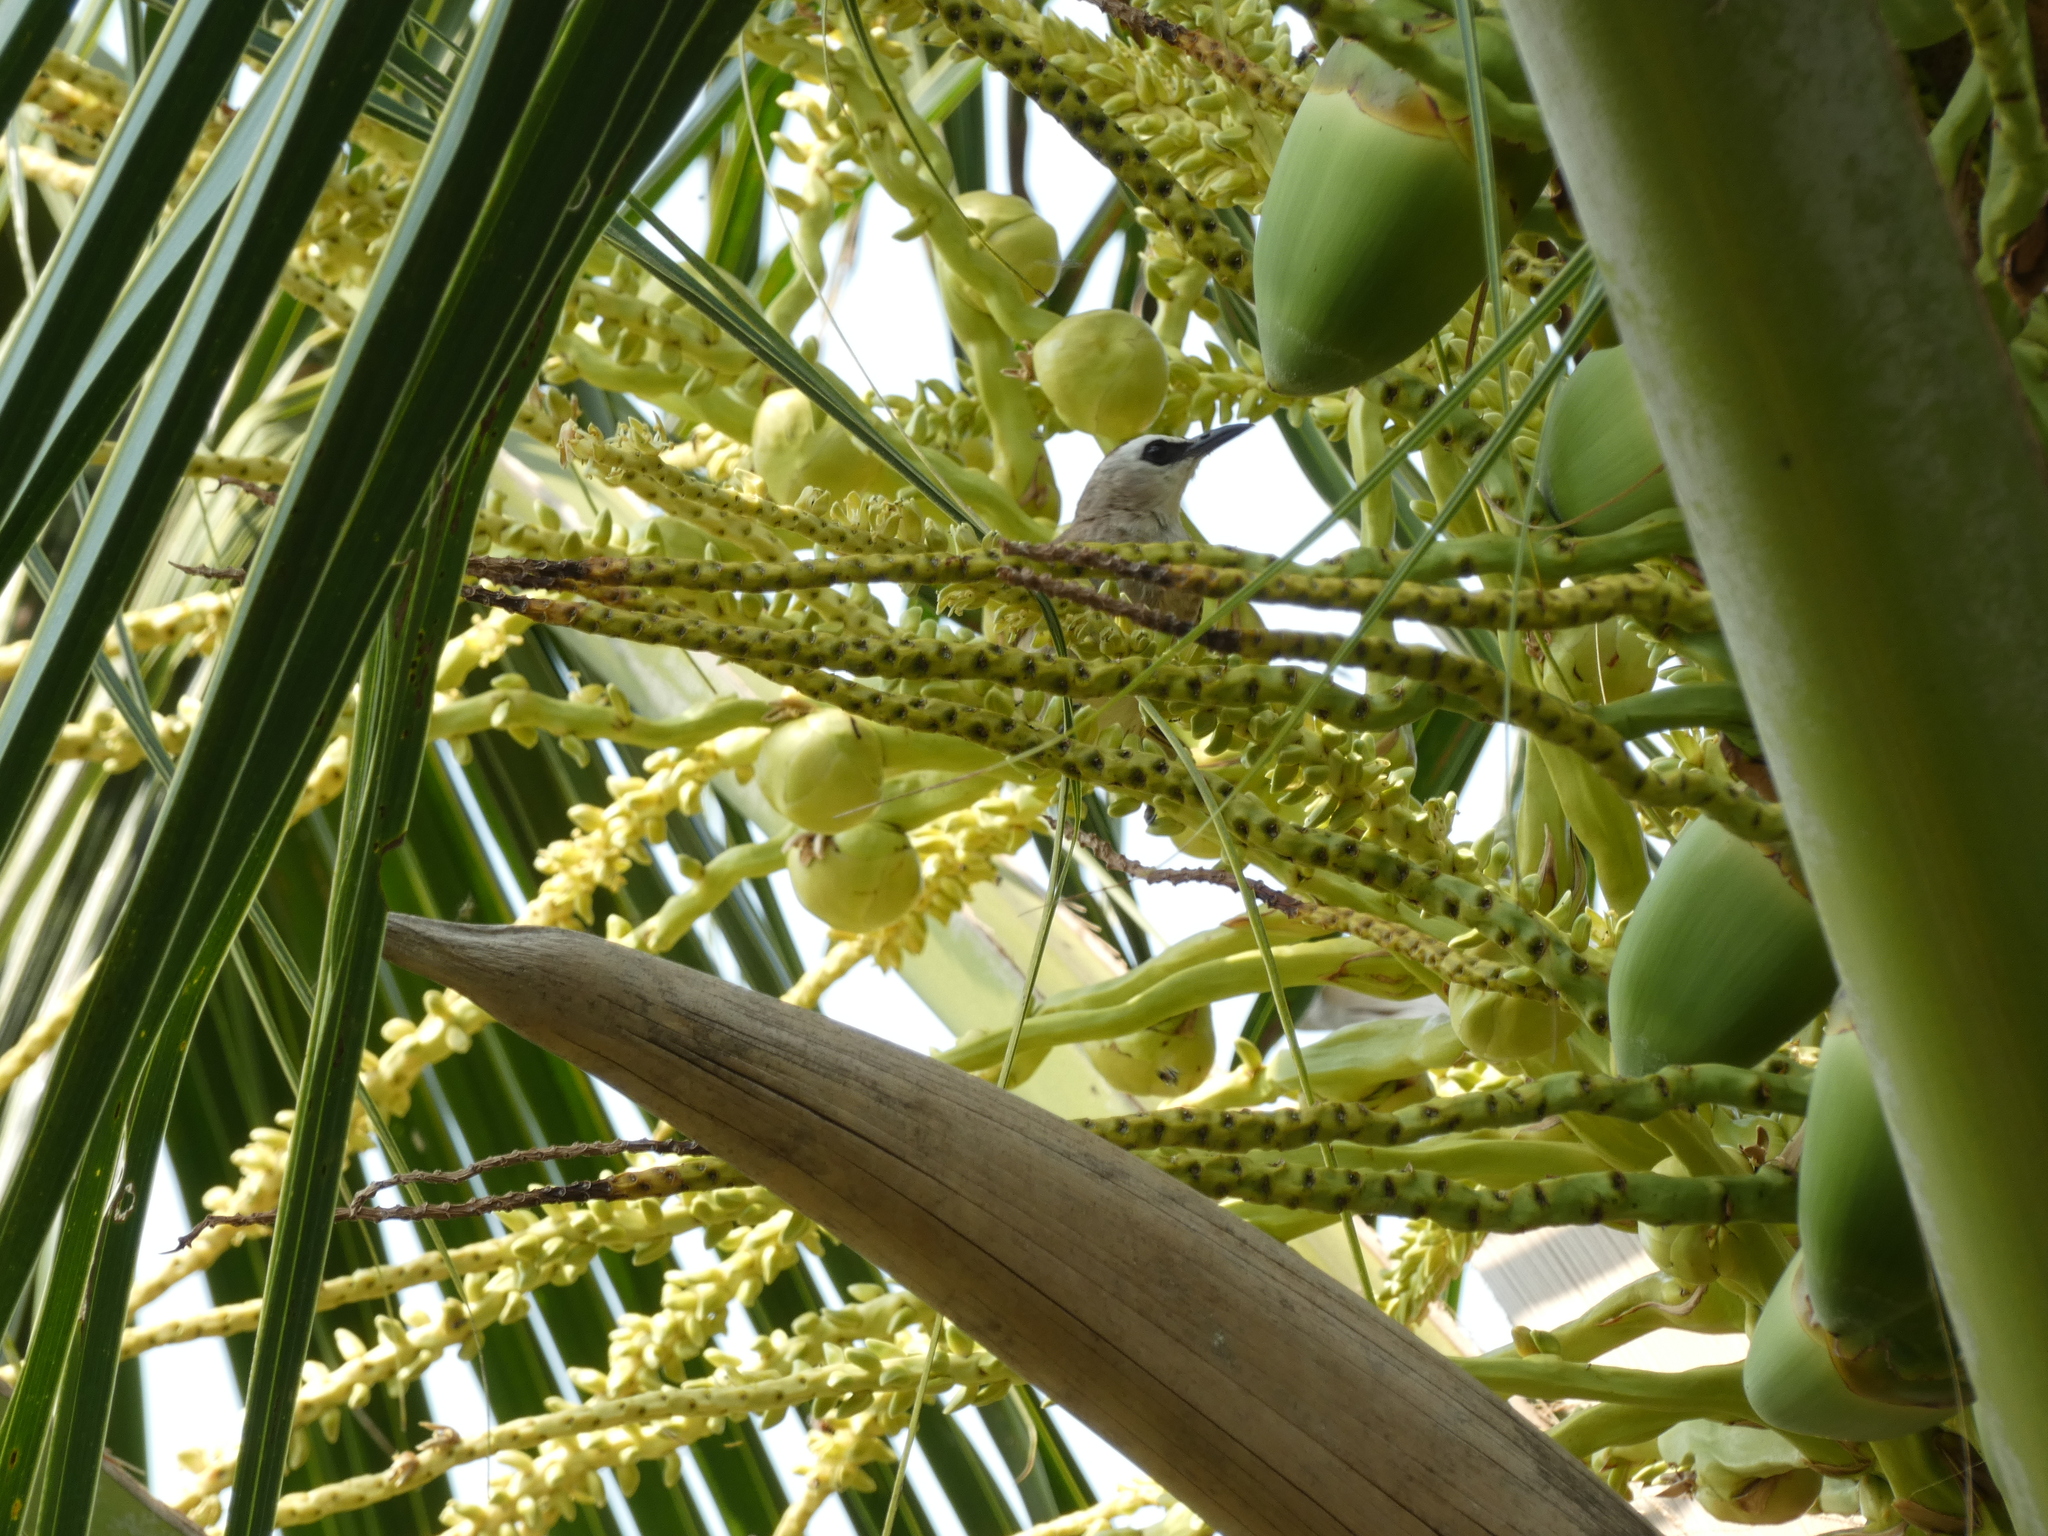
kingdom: Animalia
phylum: Chordata
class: Aves
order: Passeriformes
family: Pycnonotidae
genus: Pycnonotus
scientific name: Pycnonotus goiavier
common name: Yellow-vented bulbul
